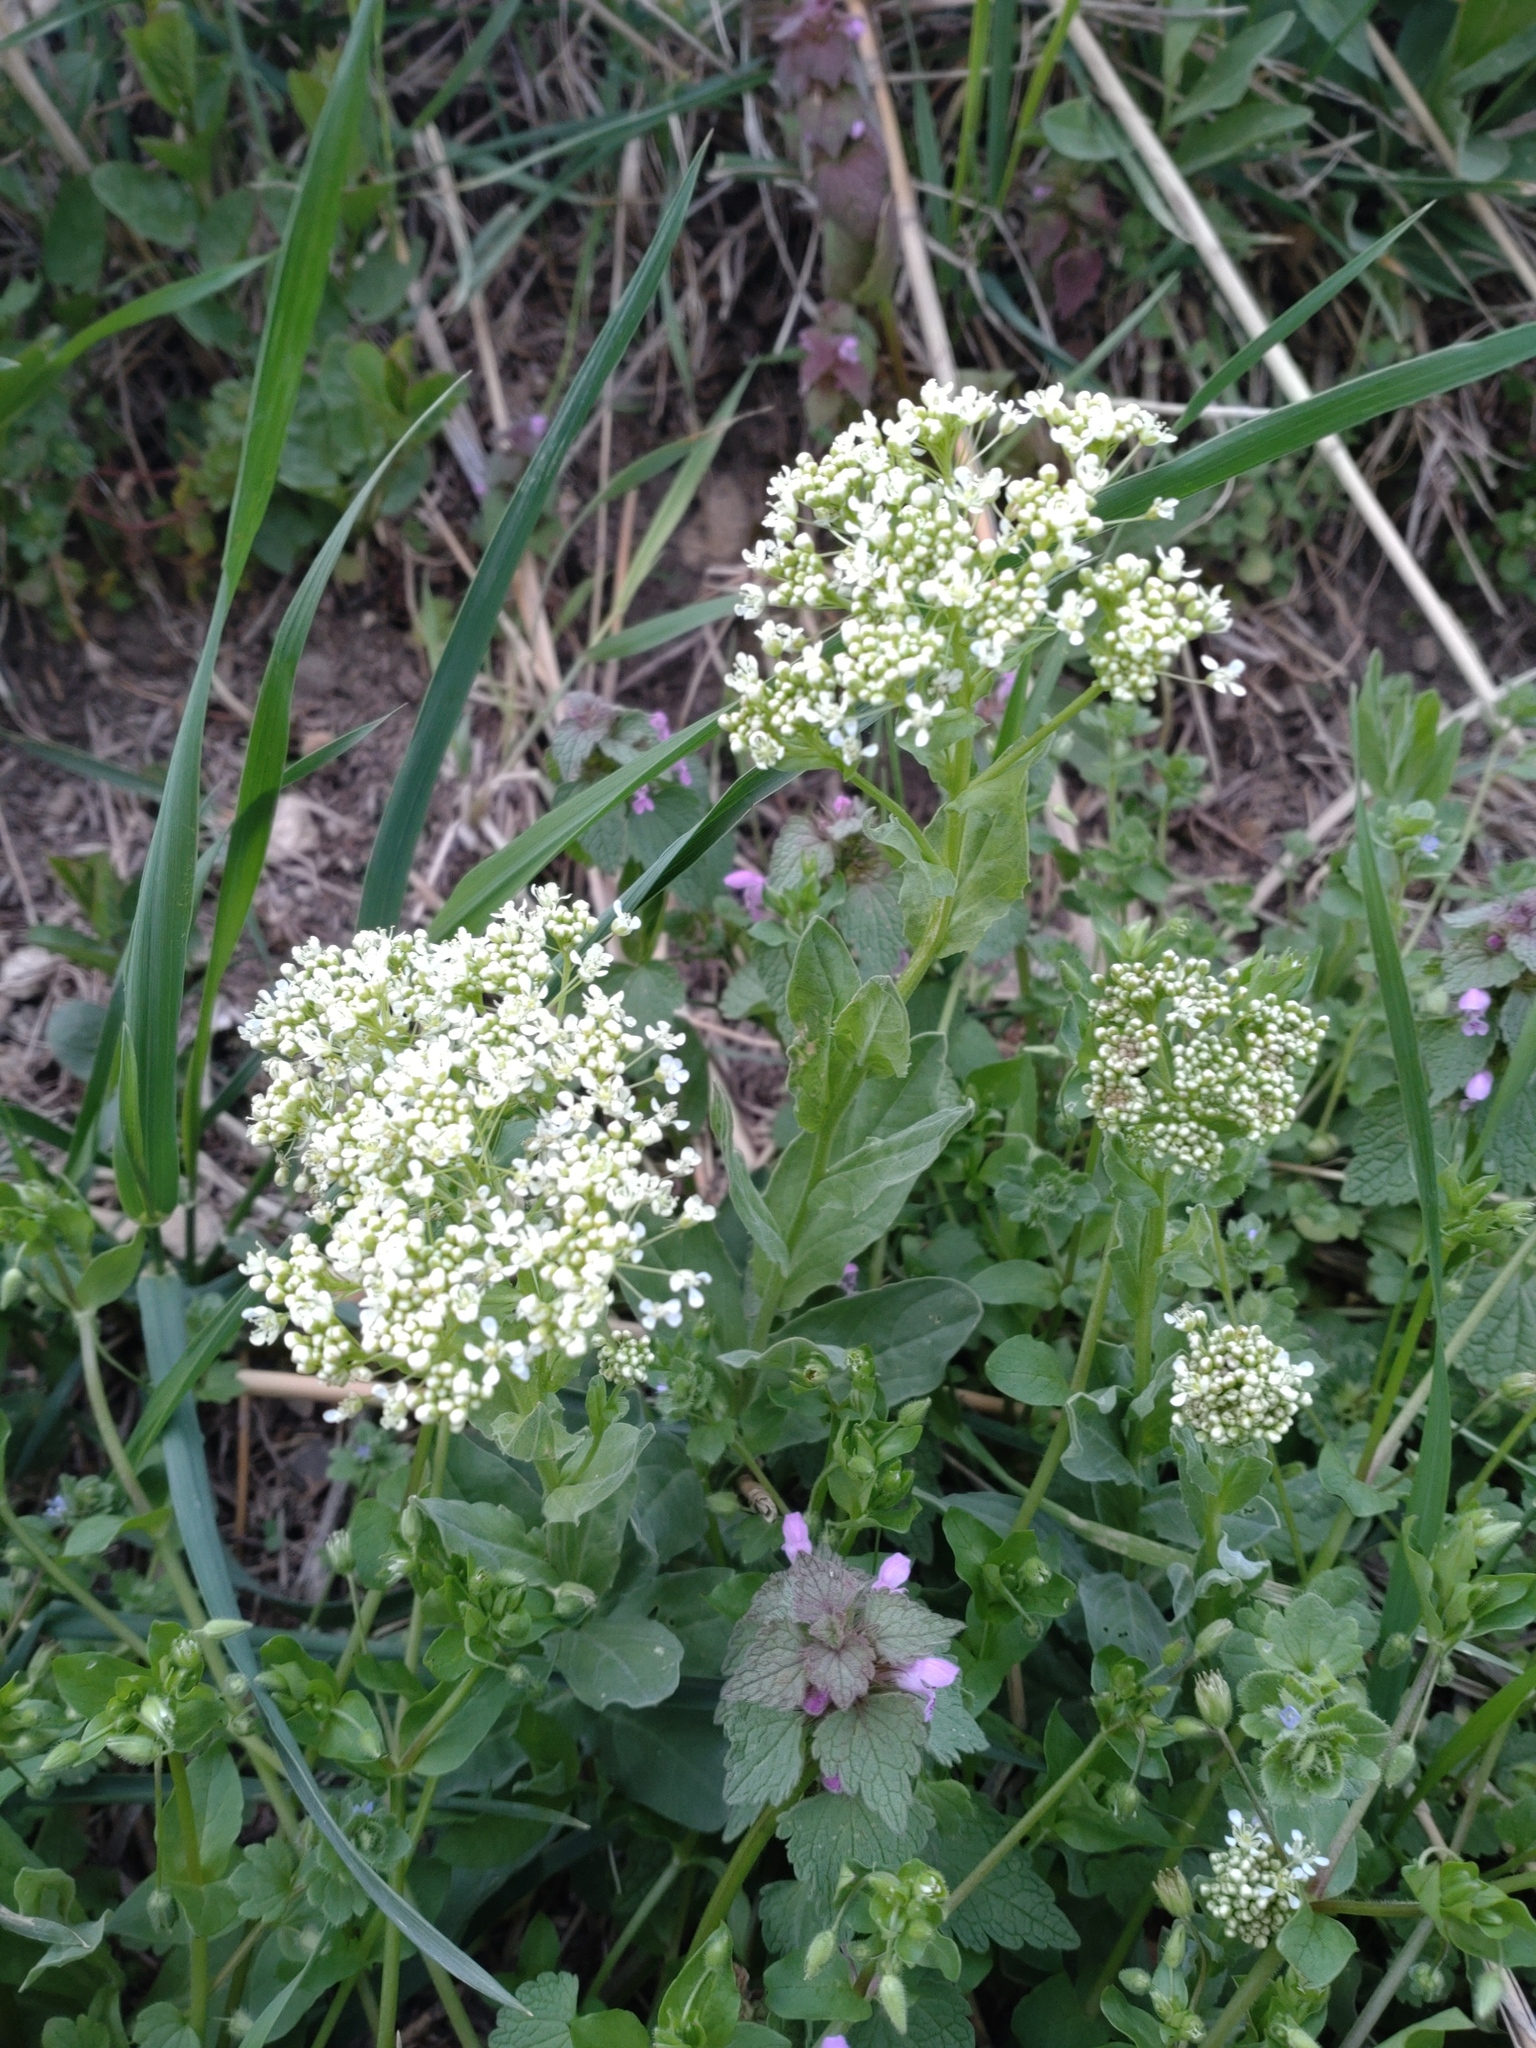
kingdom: Plantae
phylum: Tracheophyta
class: Magnoliopsida
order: Brassicales
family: Brassicaceae
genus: Lepidium
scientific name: Lepidium draba
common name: Hoary cress
